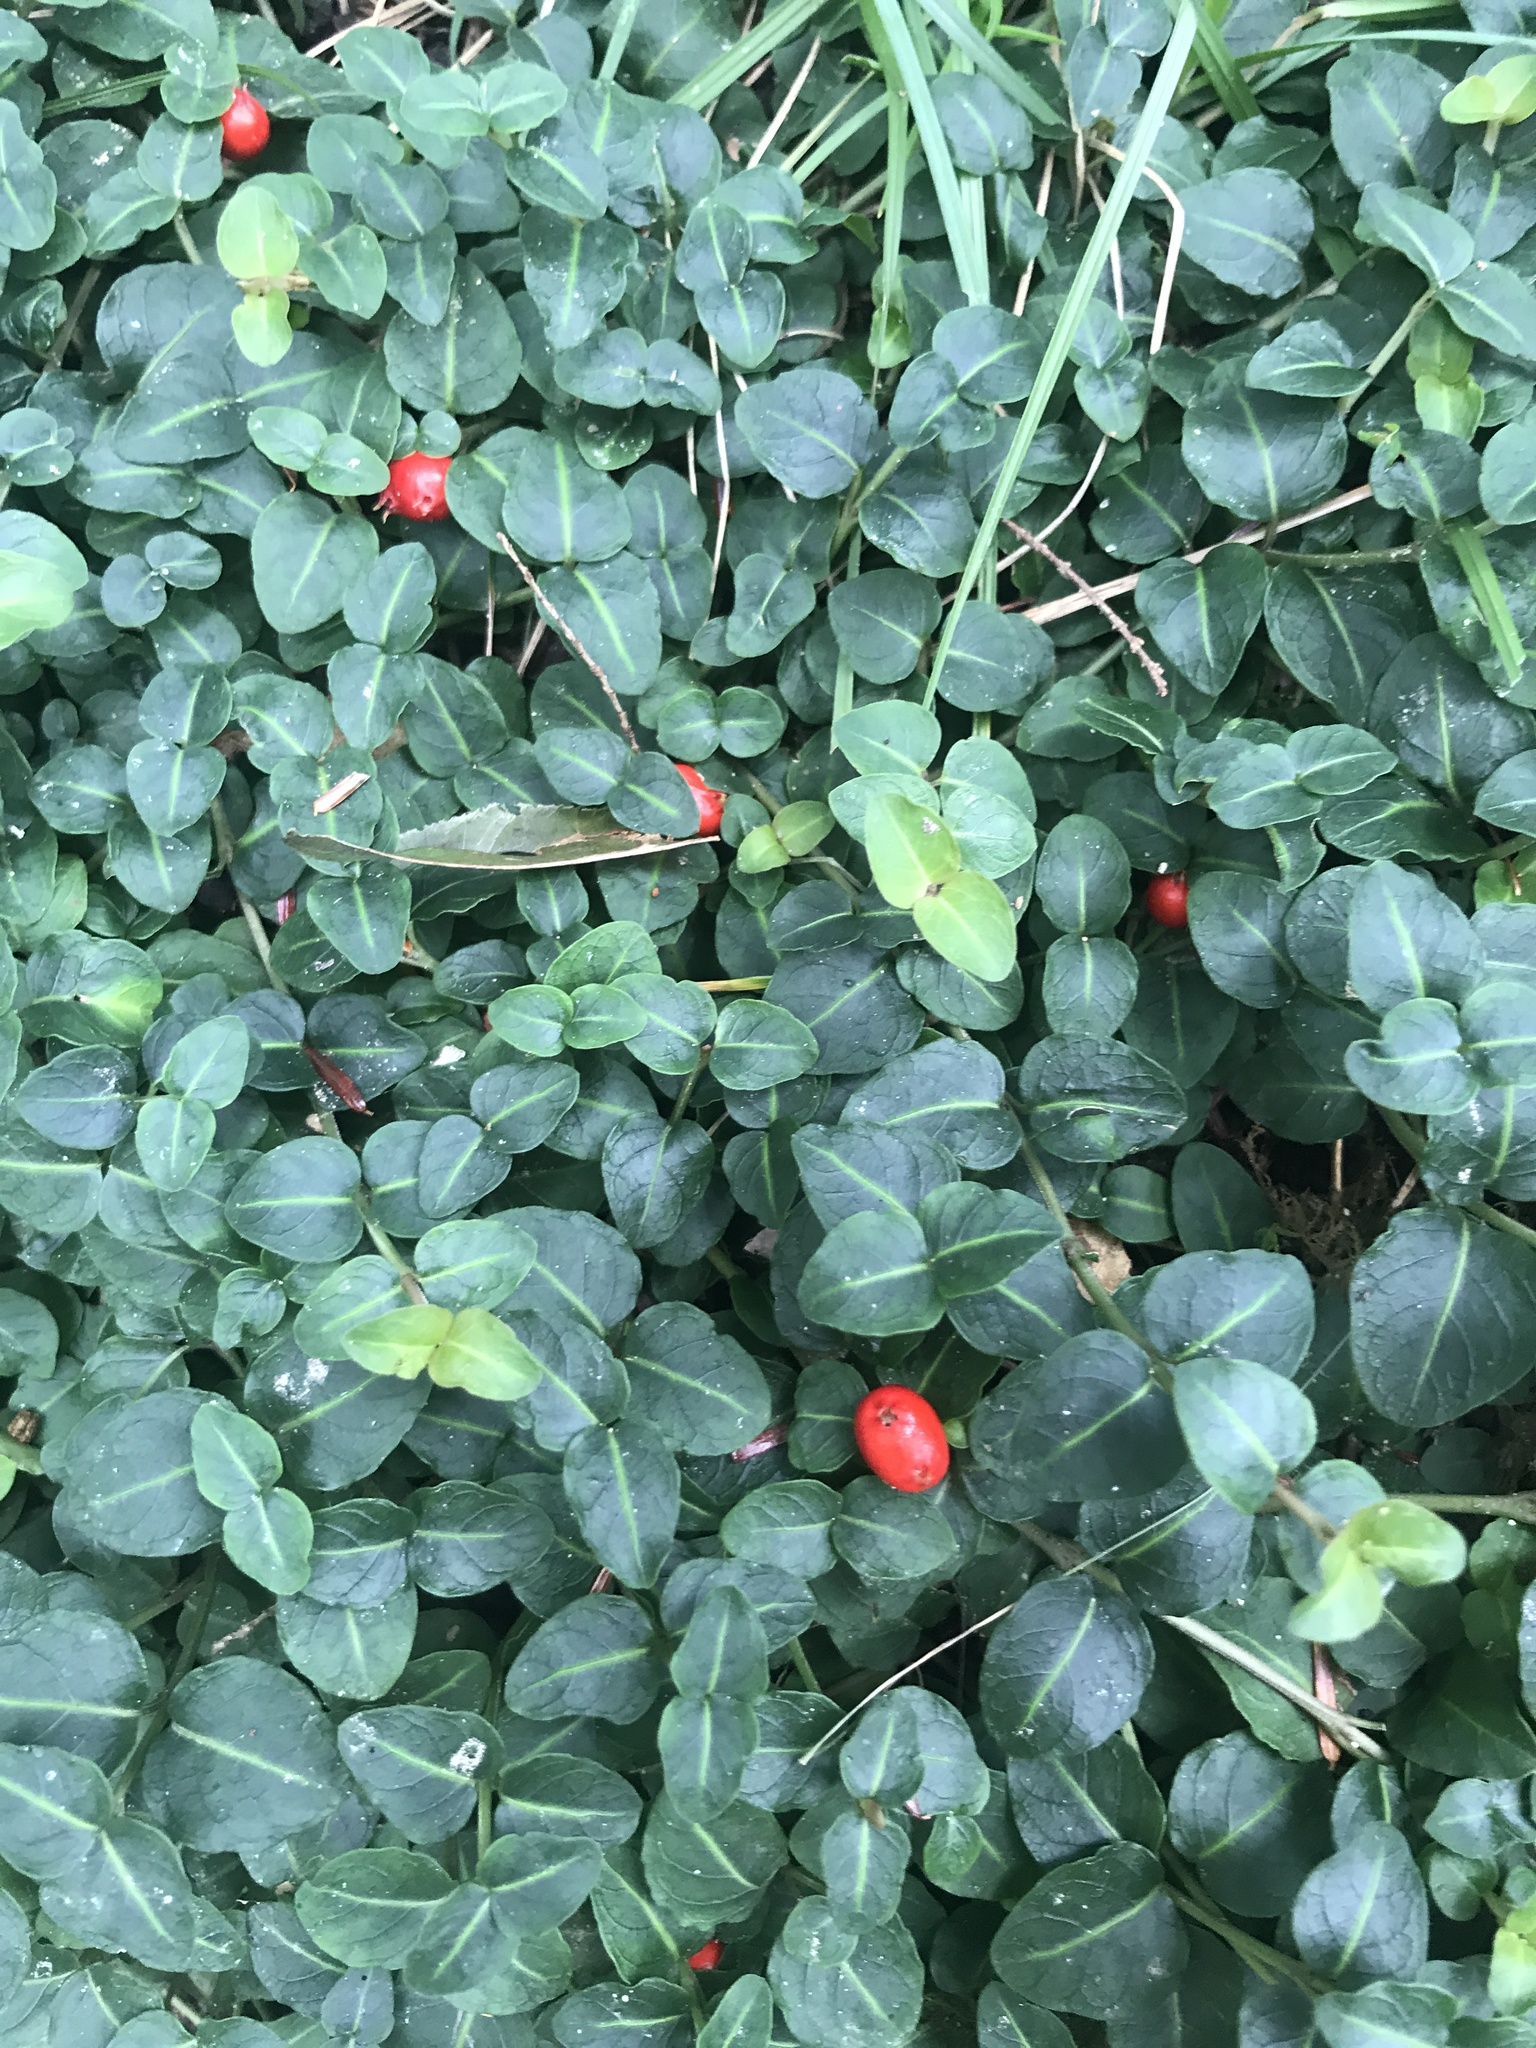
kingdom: Plantae
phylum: Tracheophyta
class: Magnoliopsida
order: Gentianales
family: Rubiaceae
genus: Mitchella
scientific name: Mitchella repens
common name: Partridge-berry
